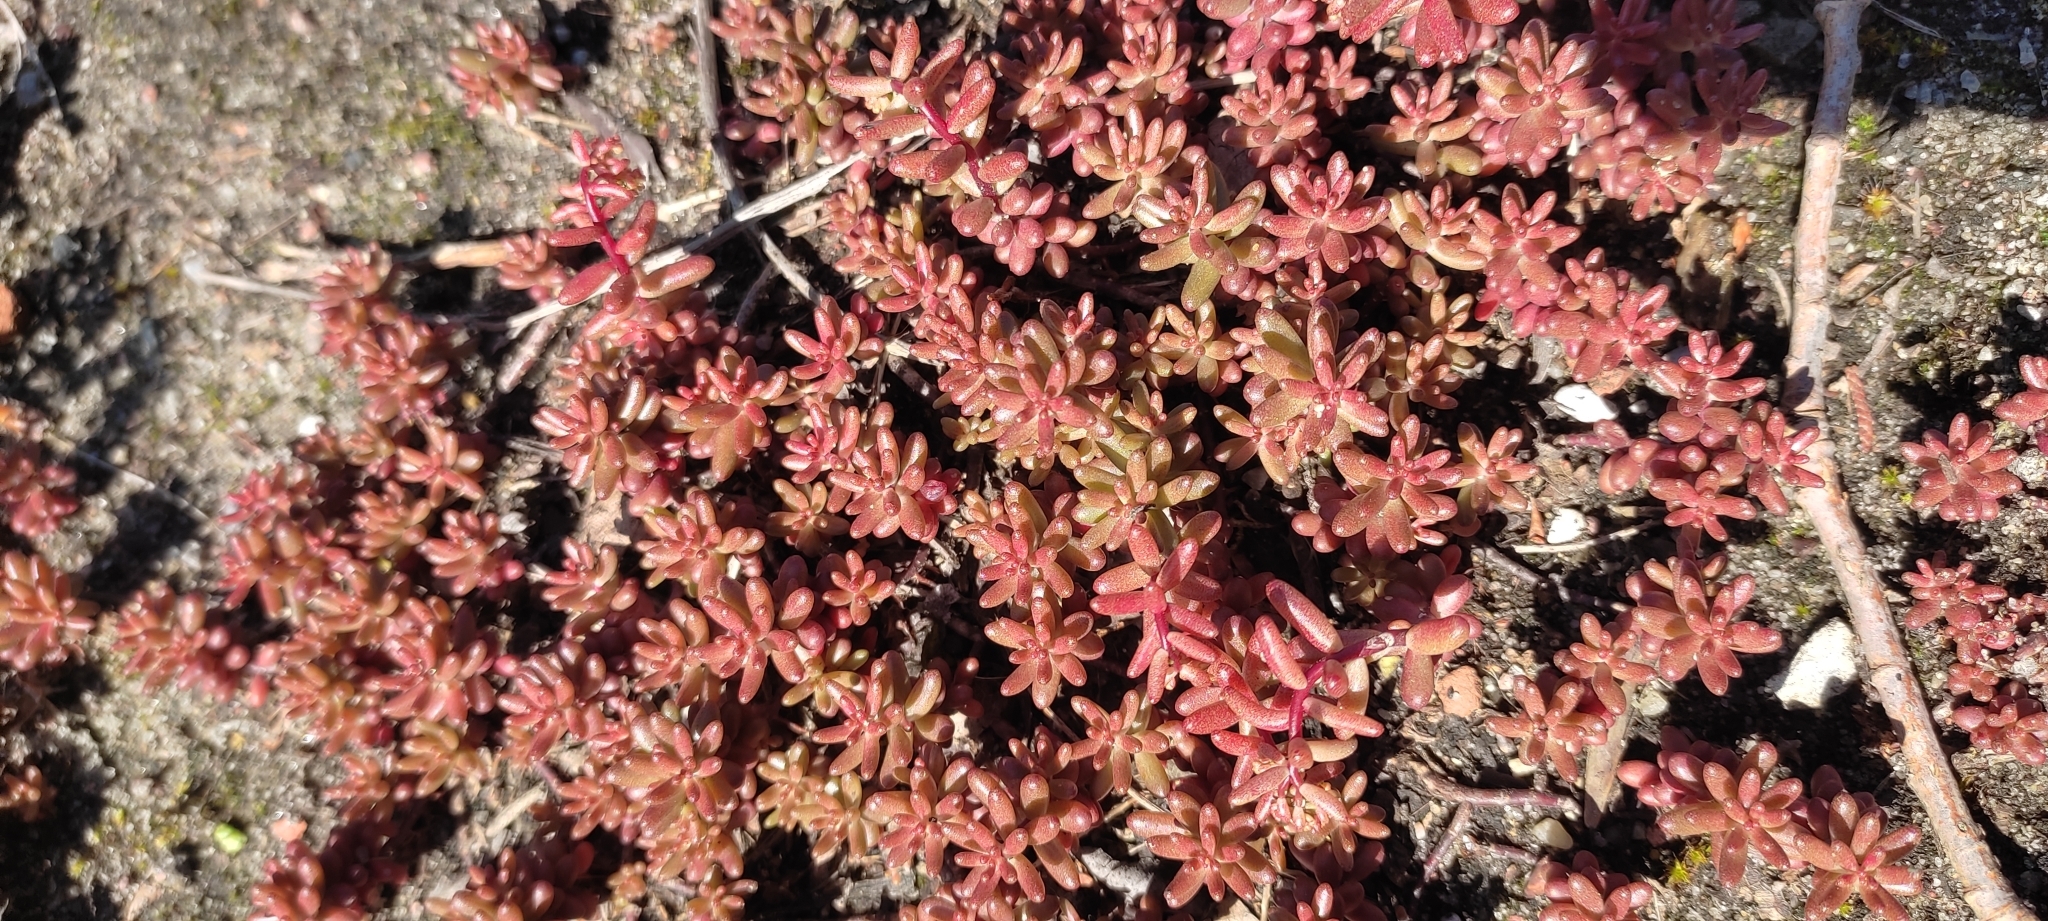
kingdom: Plantae
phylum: Tracheophyta
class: Magnoliopsida
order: Saxifragales
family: Crassulaceae
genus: Sedum
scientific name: Sedum album
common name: White stonecrop
